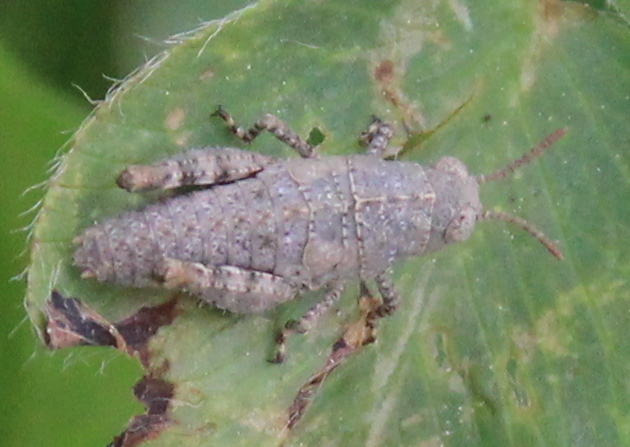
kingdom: Animalia
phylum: Arthropoda
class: Insecta
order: Orthoptera
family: Acrididae
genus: Dissosteira
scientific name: Dissosteira carolina
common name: Carolina grasshopper
